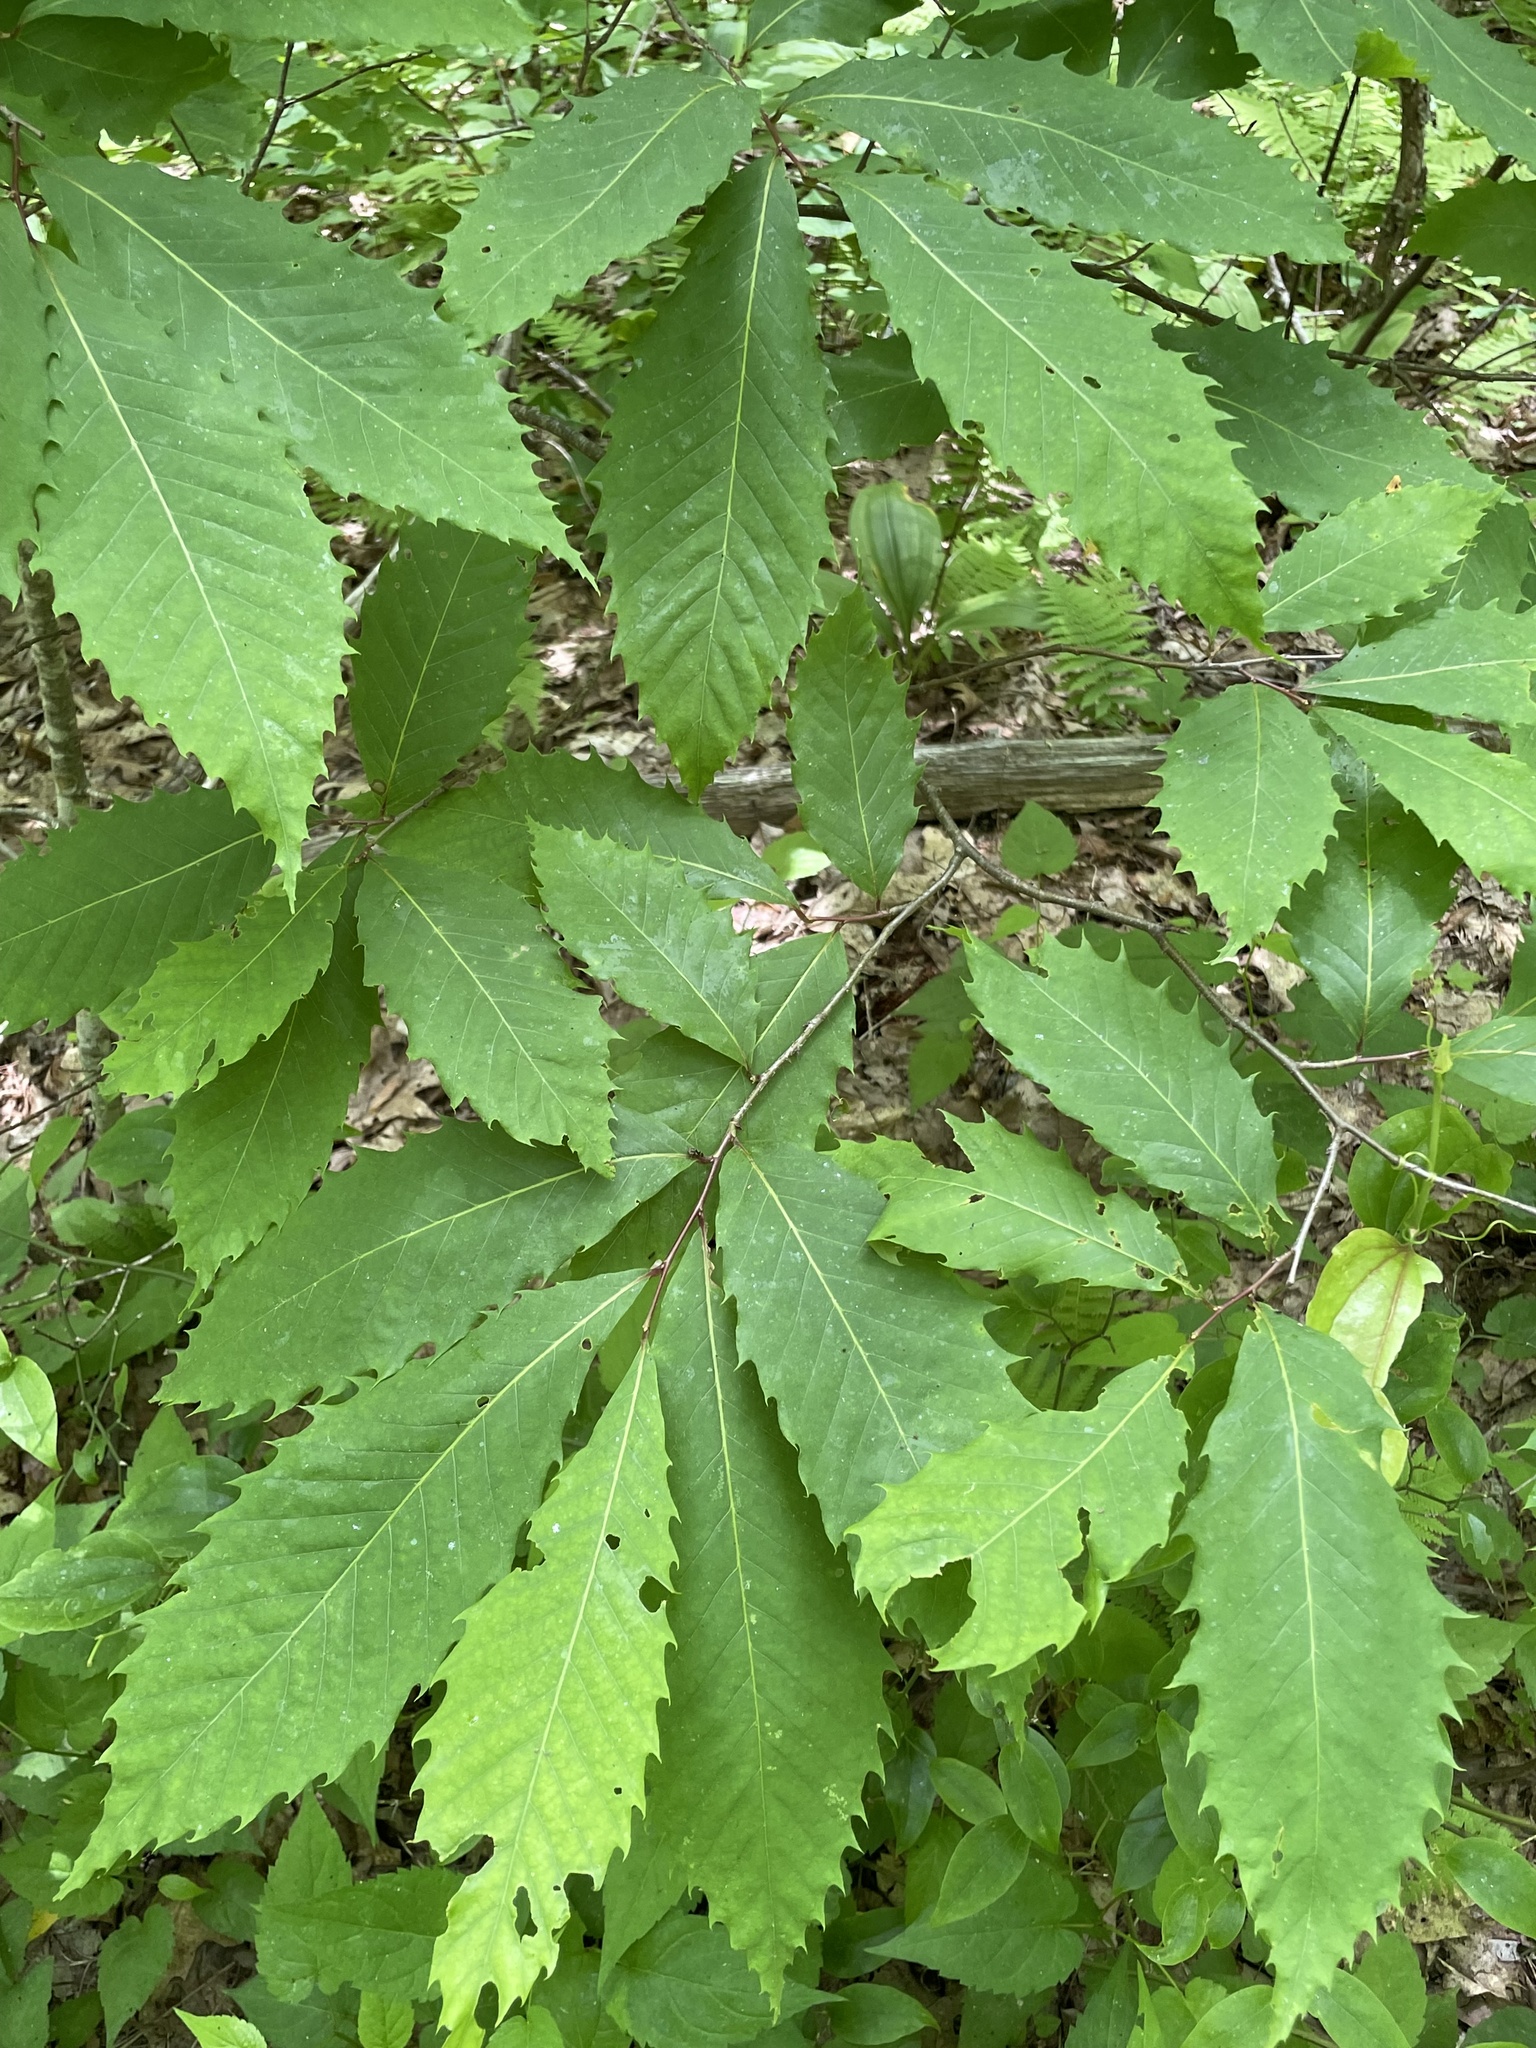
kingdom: Plantae
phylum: Tracheophyta
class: Magnoliopsida
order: Fagales
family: Fagaceae
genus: Castanea
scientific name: Castanea dentata
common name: American chestnut
